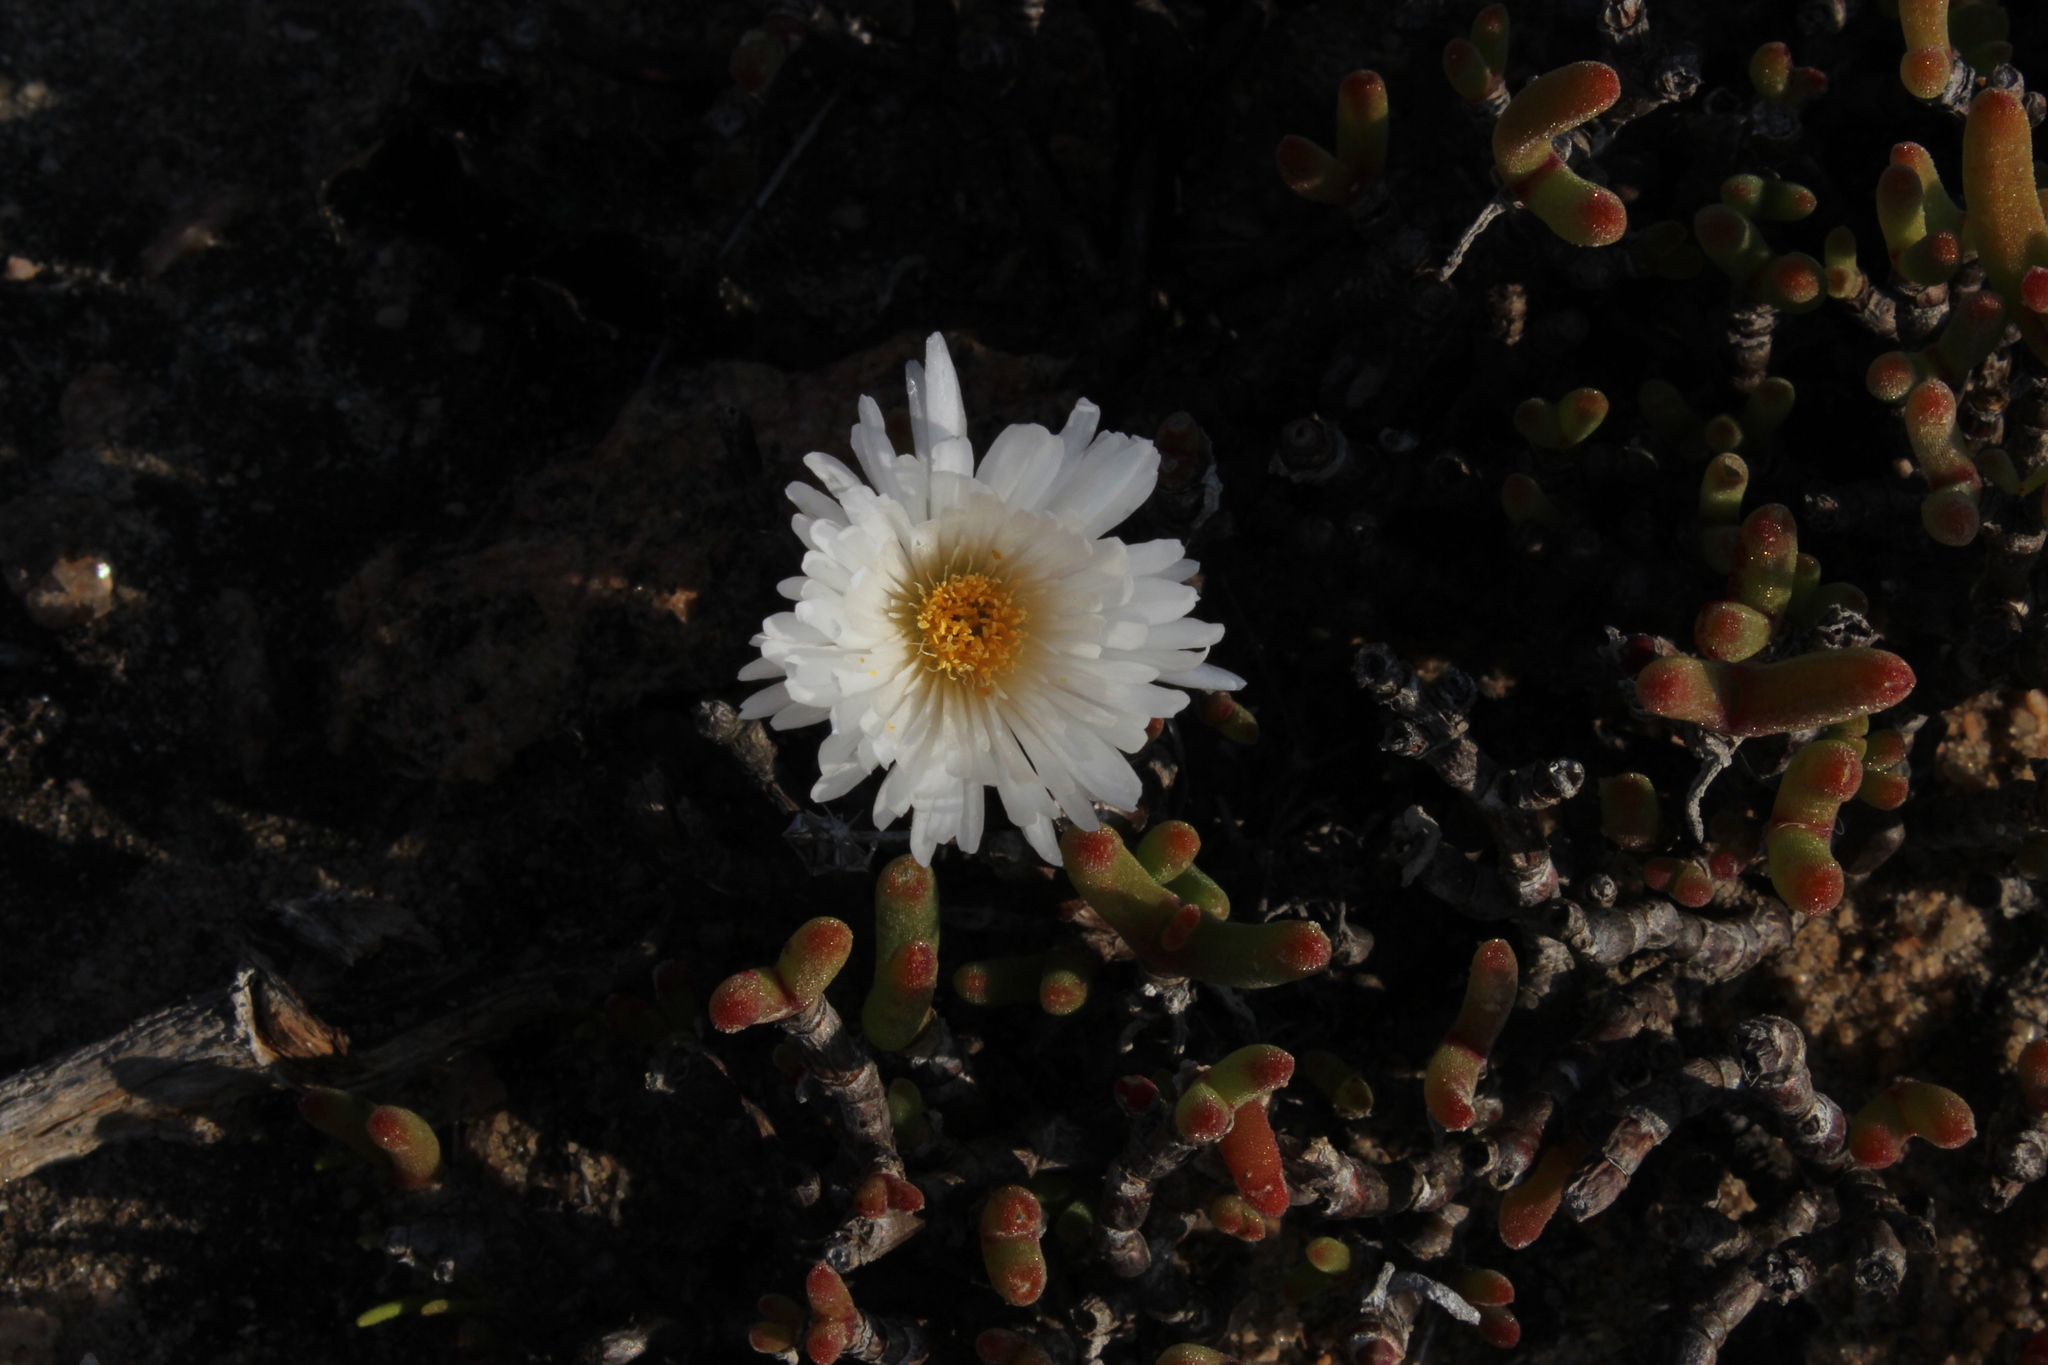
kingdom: Plantae
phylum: Tracheophyta
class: Magnoliopsida
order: Caryophyllales
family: Aizoaceae
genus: Dicrocaulon
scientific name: Dicrocaulon ramulosum
